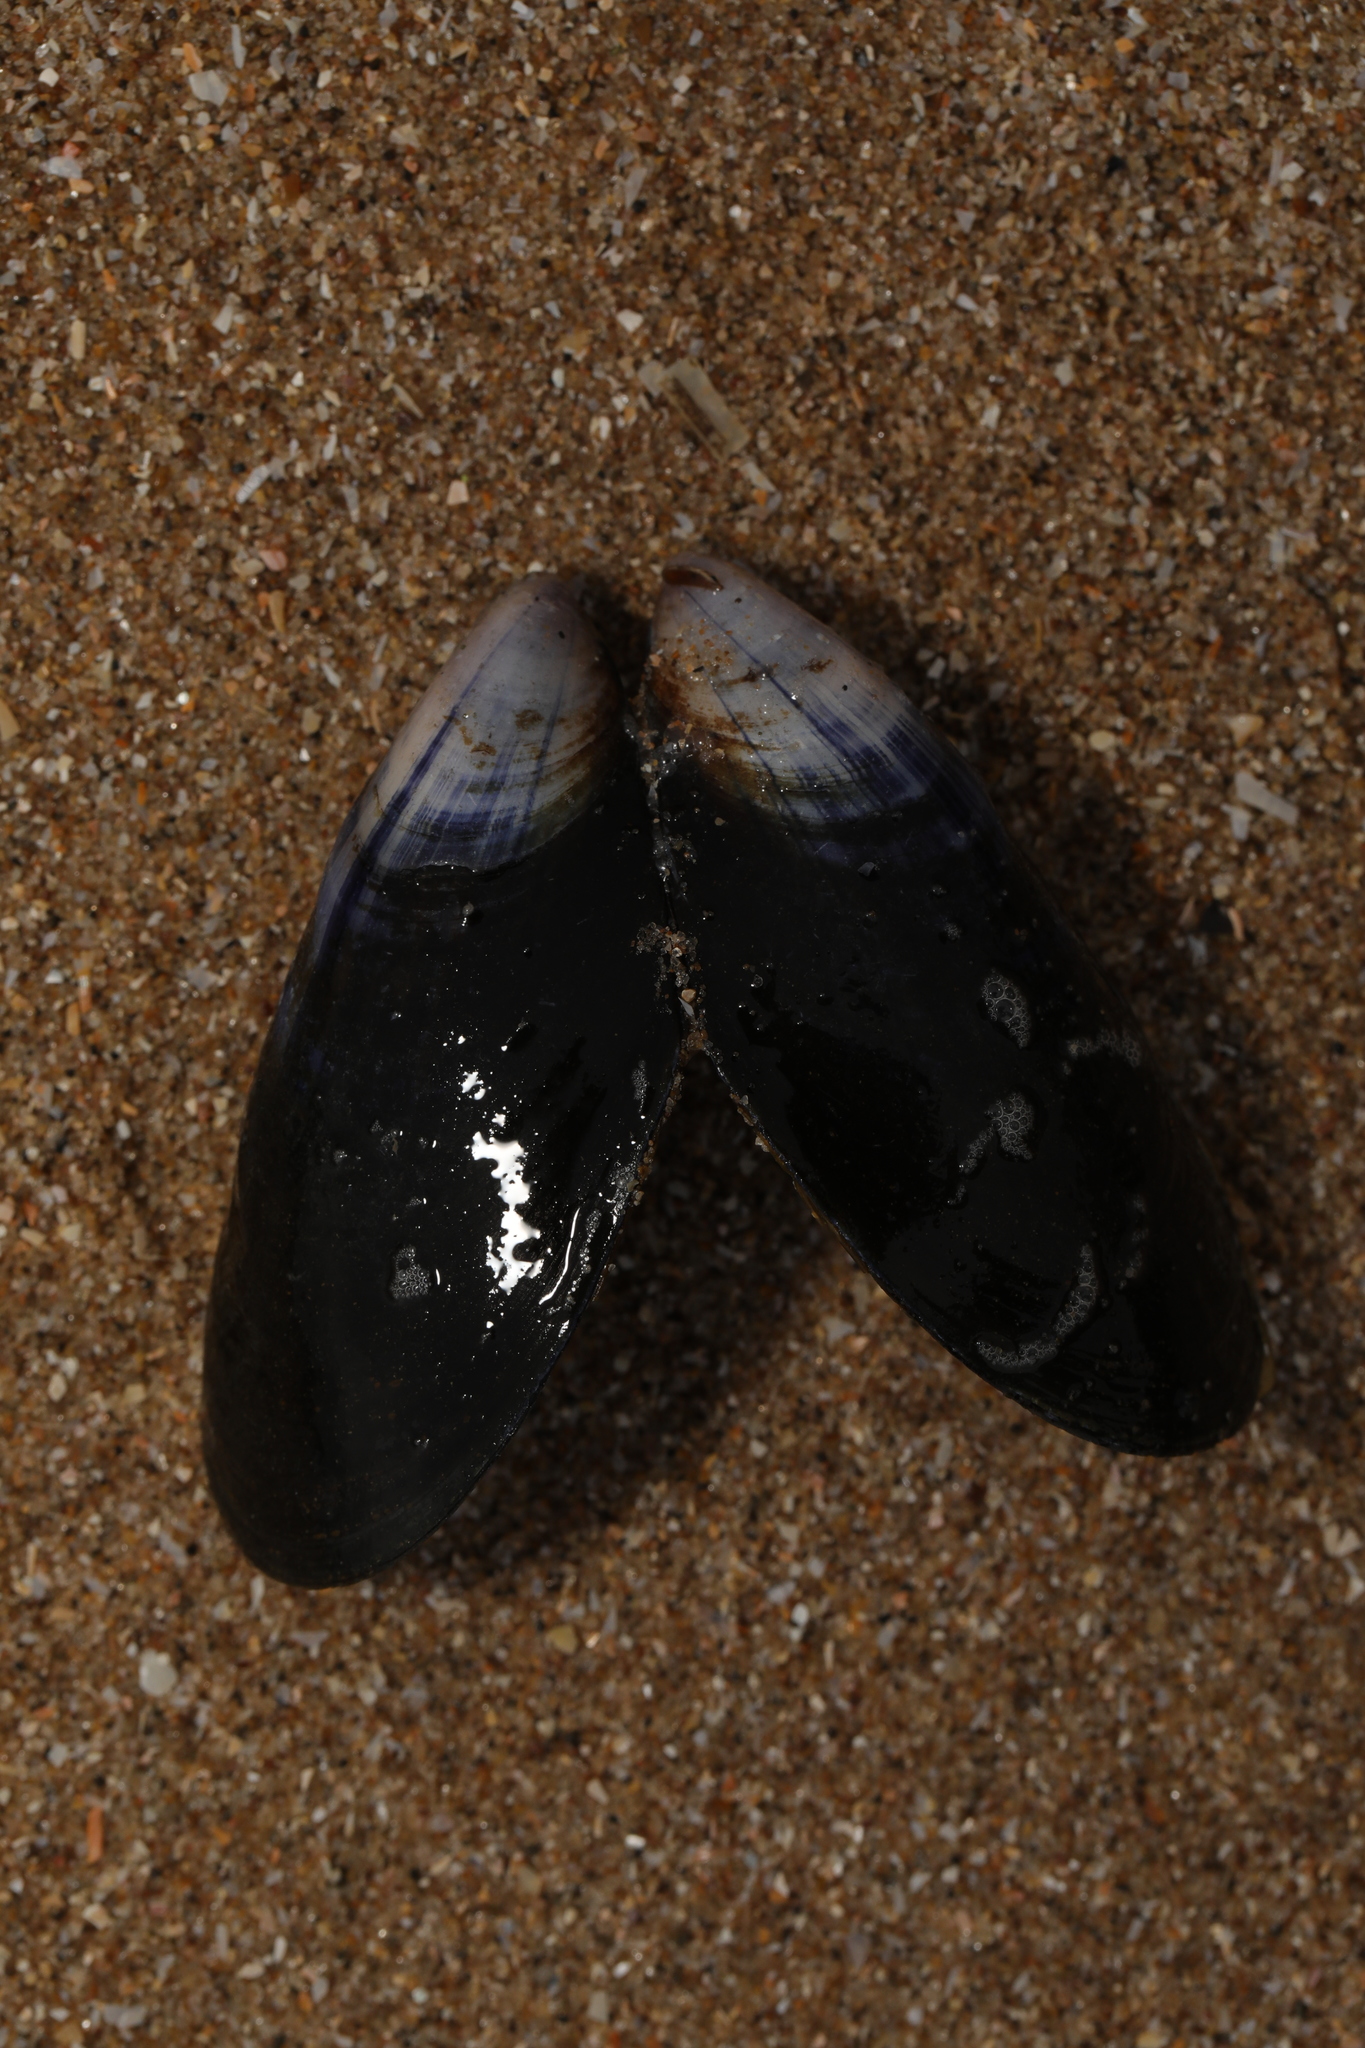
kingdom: Animalia
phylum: Mollusca
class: Bivalvia
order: Mytilida
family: Mytilidae
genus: Mytilus
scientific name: Mytilus edulis
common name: Blue mussel
